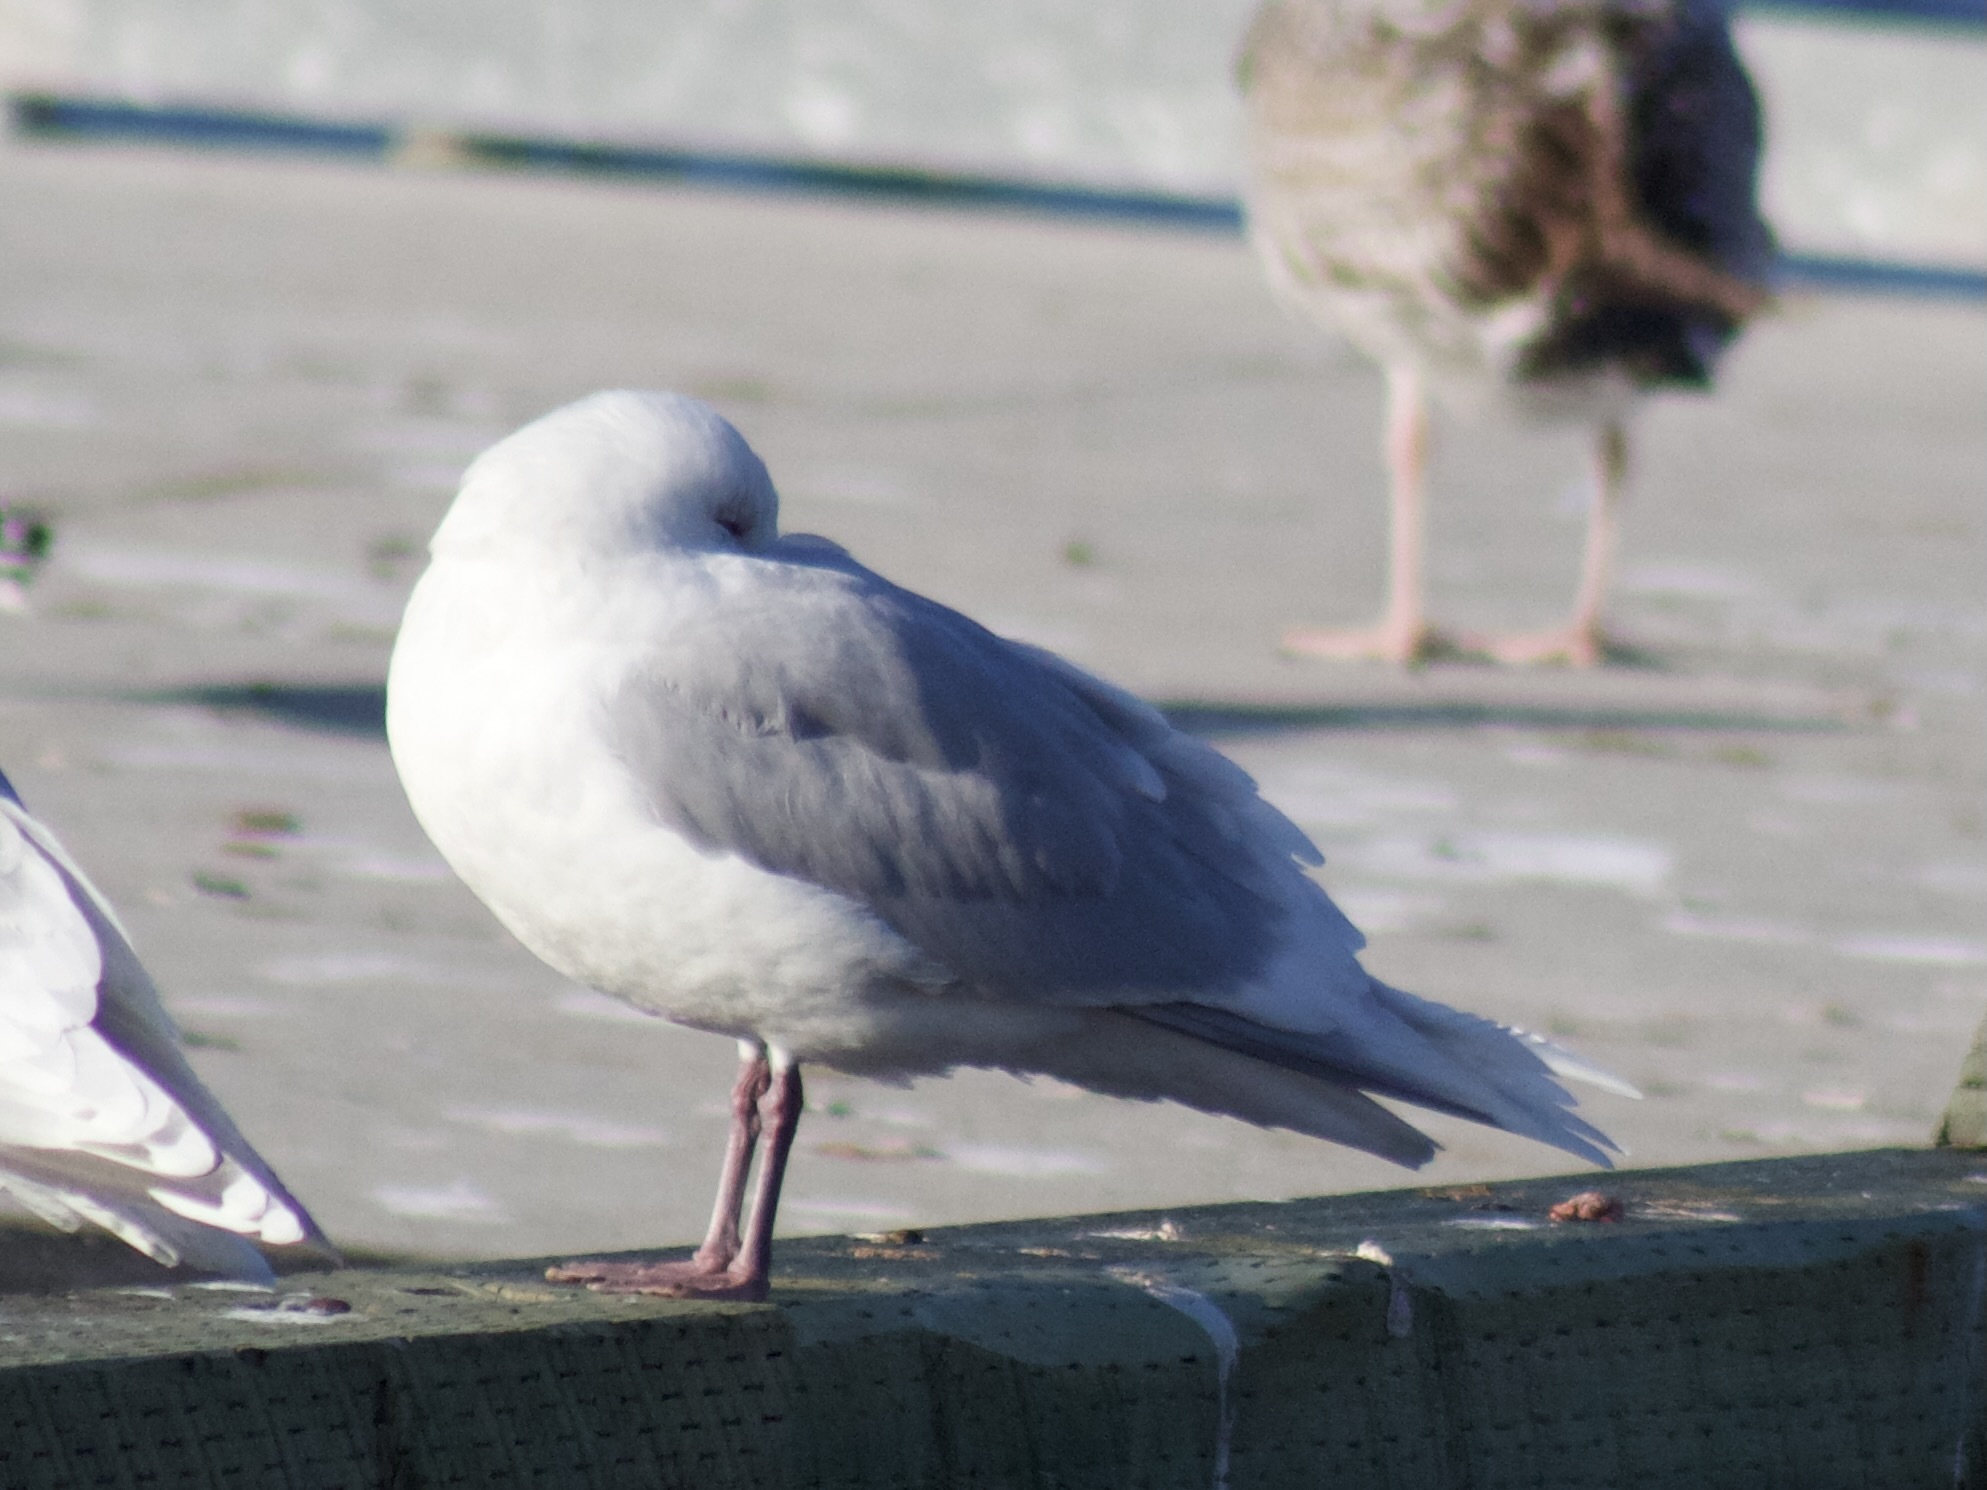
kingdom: Animalia
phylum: Chordata
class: Aves
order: Charadriiformes
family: Laridae
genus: Larus
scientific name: Larus glaucoides
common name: Iceland gull
